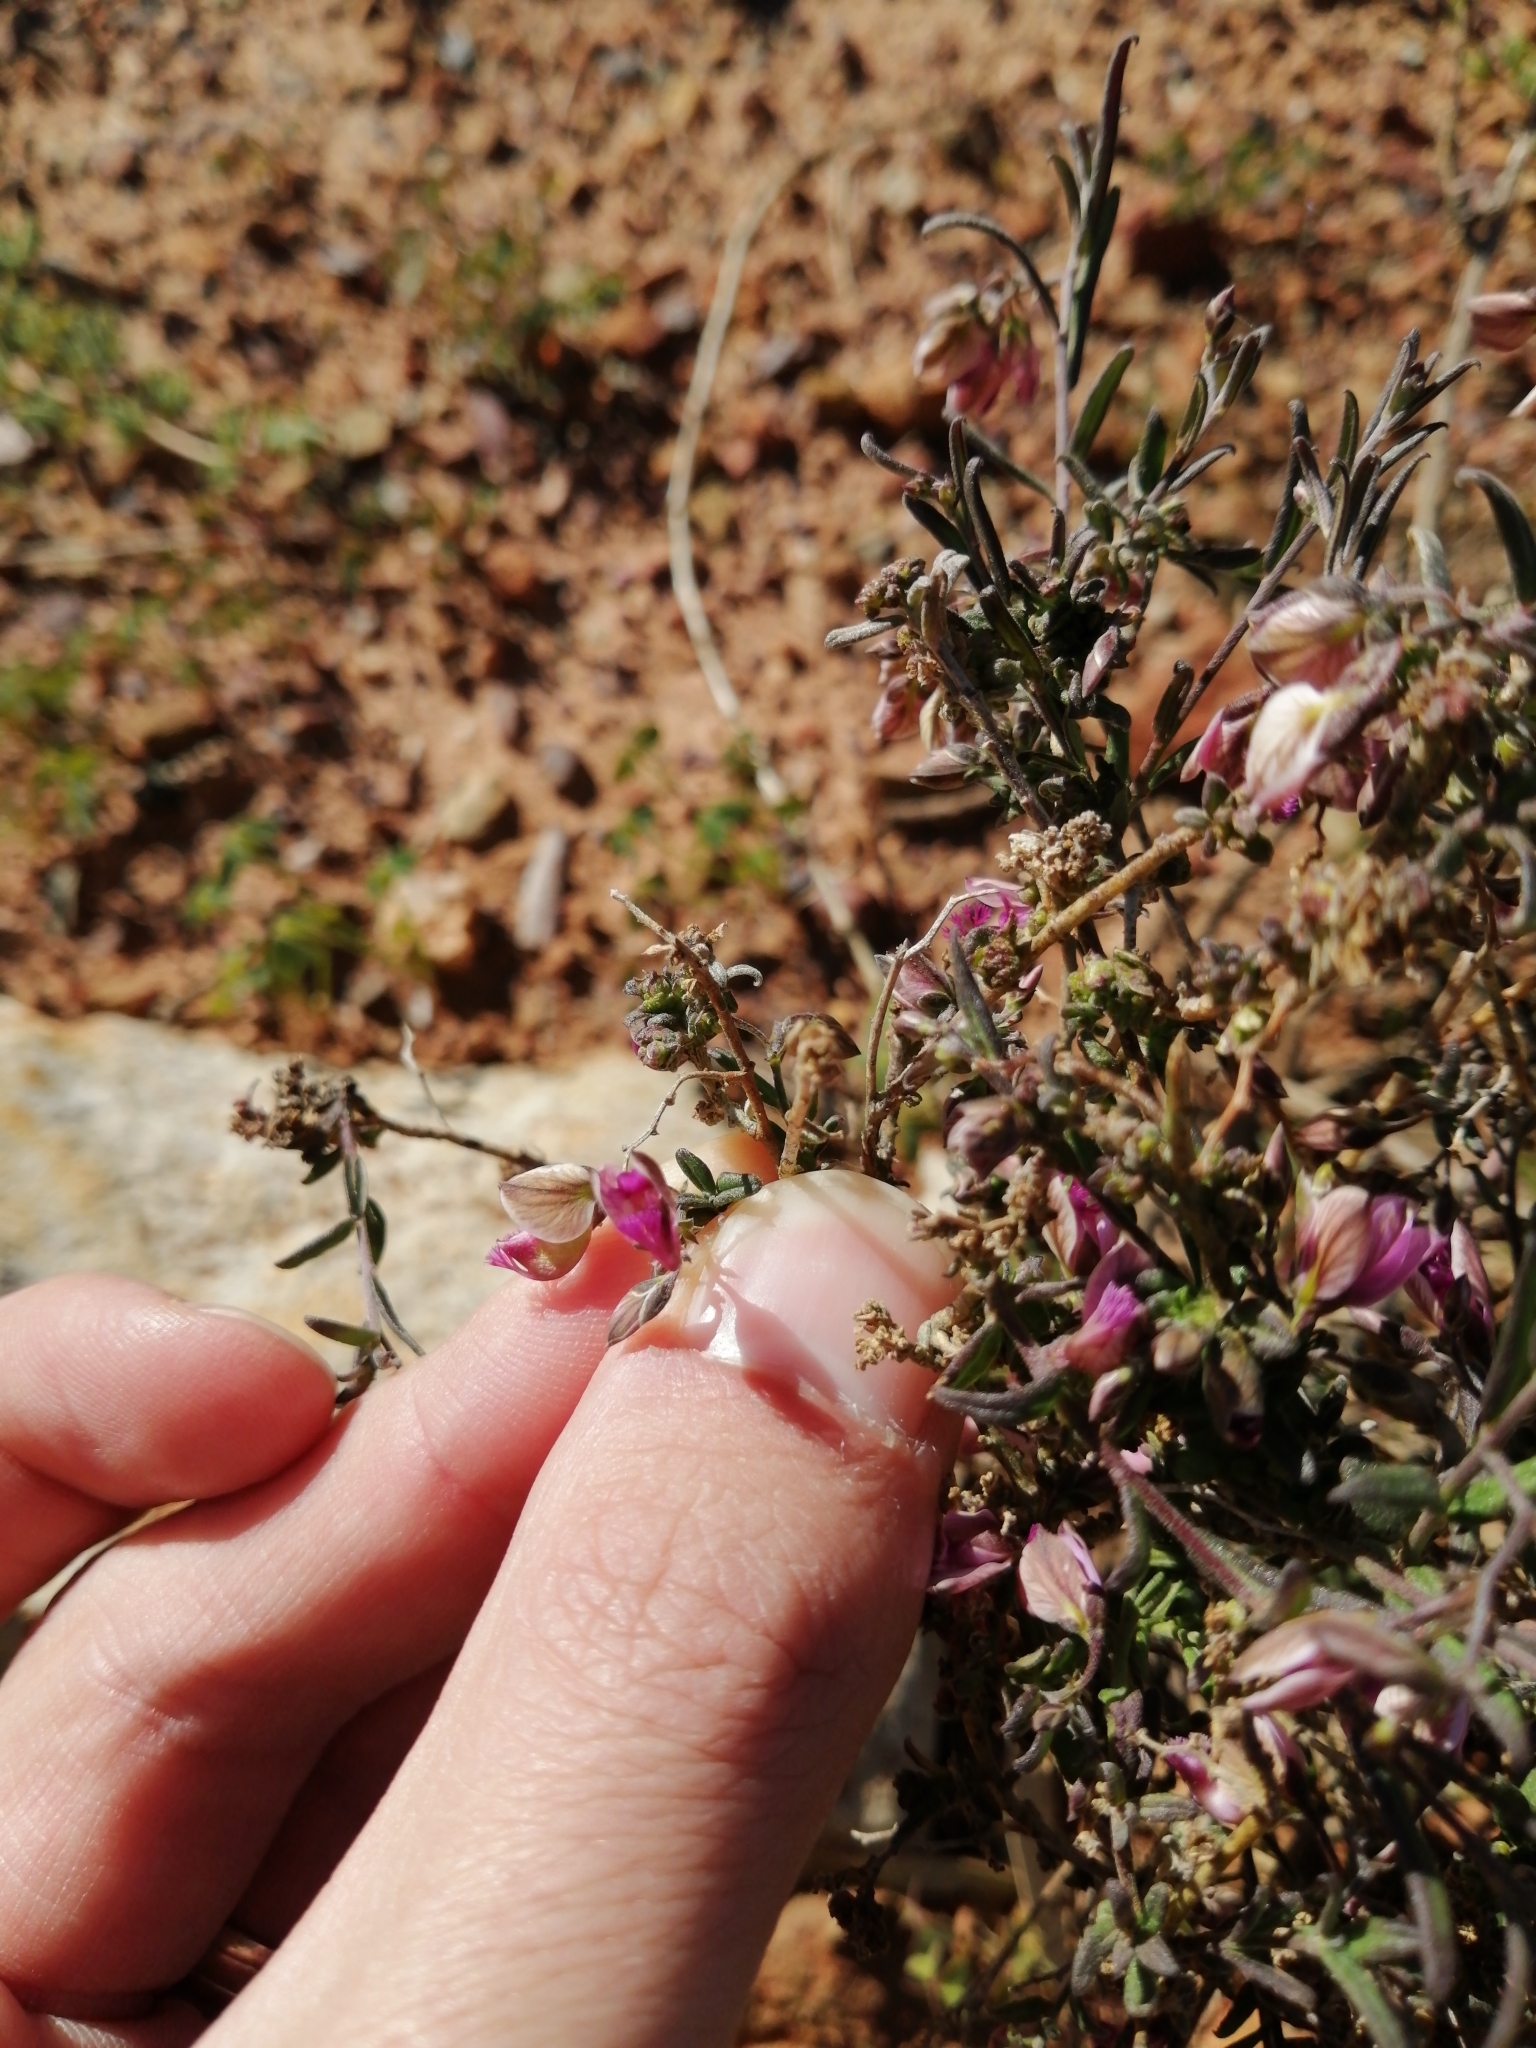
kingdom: Plantae
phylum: Tracheophyta
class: Magnoliopsida
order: Fabales
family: Polygalaceae
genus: Polygala
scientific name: Polygala scabra
